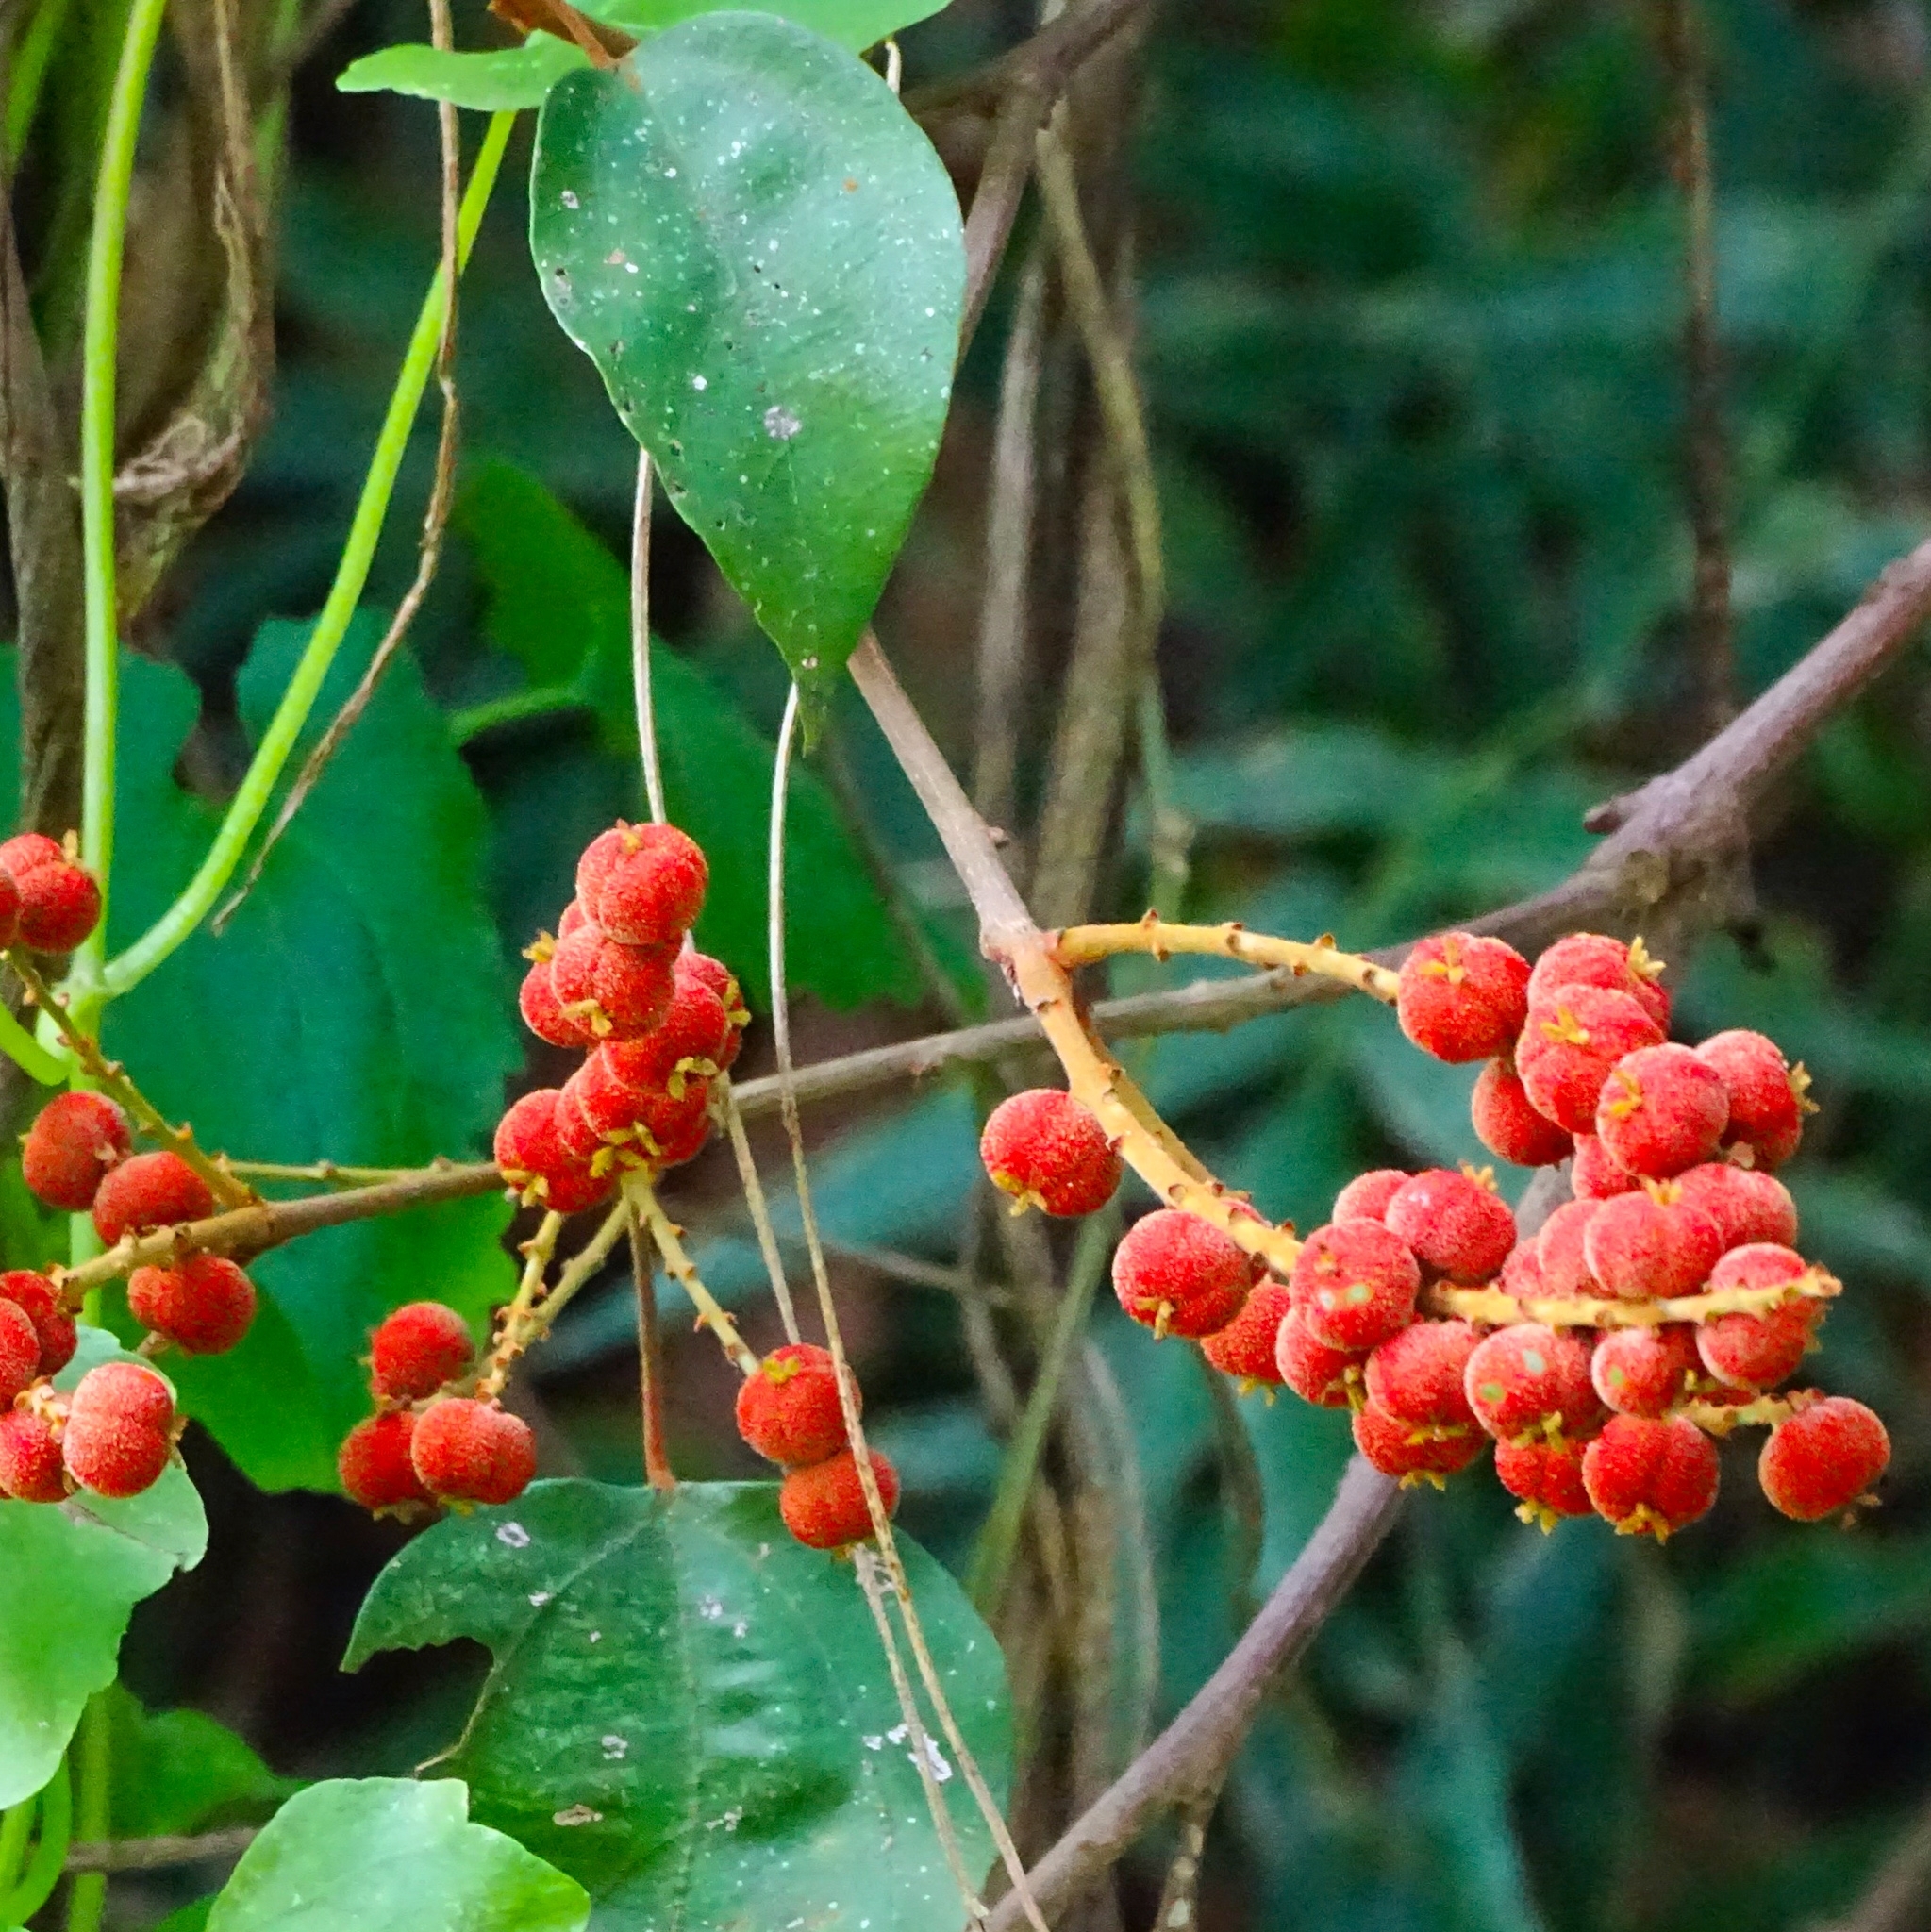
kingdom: Plantae
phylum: Tracheophyta
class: Magnoliopsida
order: Malpighiales
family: Euphorbiaceae
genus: Mallotus
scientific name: Mallotus philippensis
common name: Kamala tree
